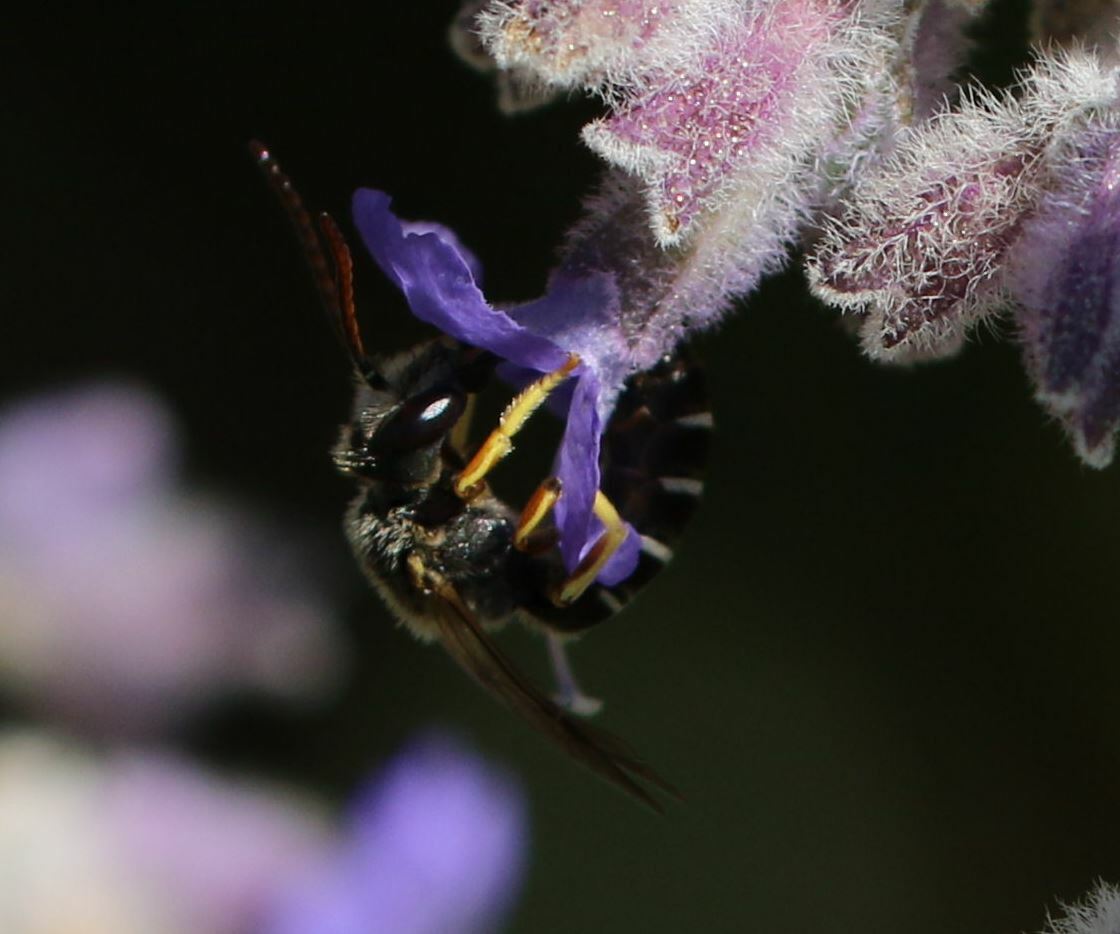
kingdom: Animalia
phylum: Arthropoda
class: Insecta
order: Hymenoptera
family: Halictidae
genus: Halictus
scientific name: Halictus langobardicus
